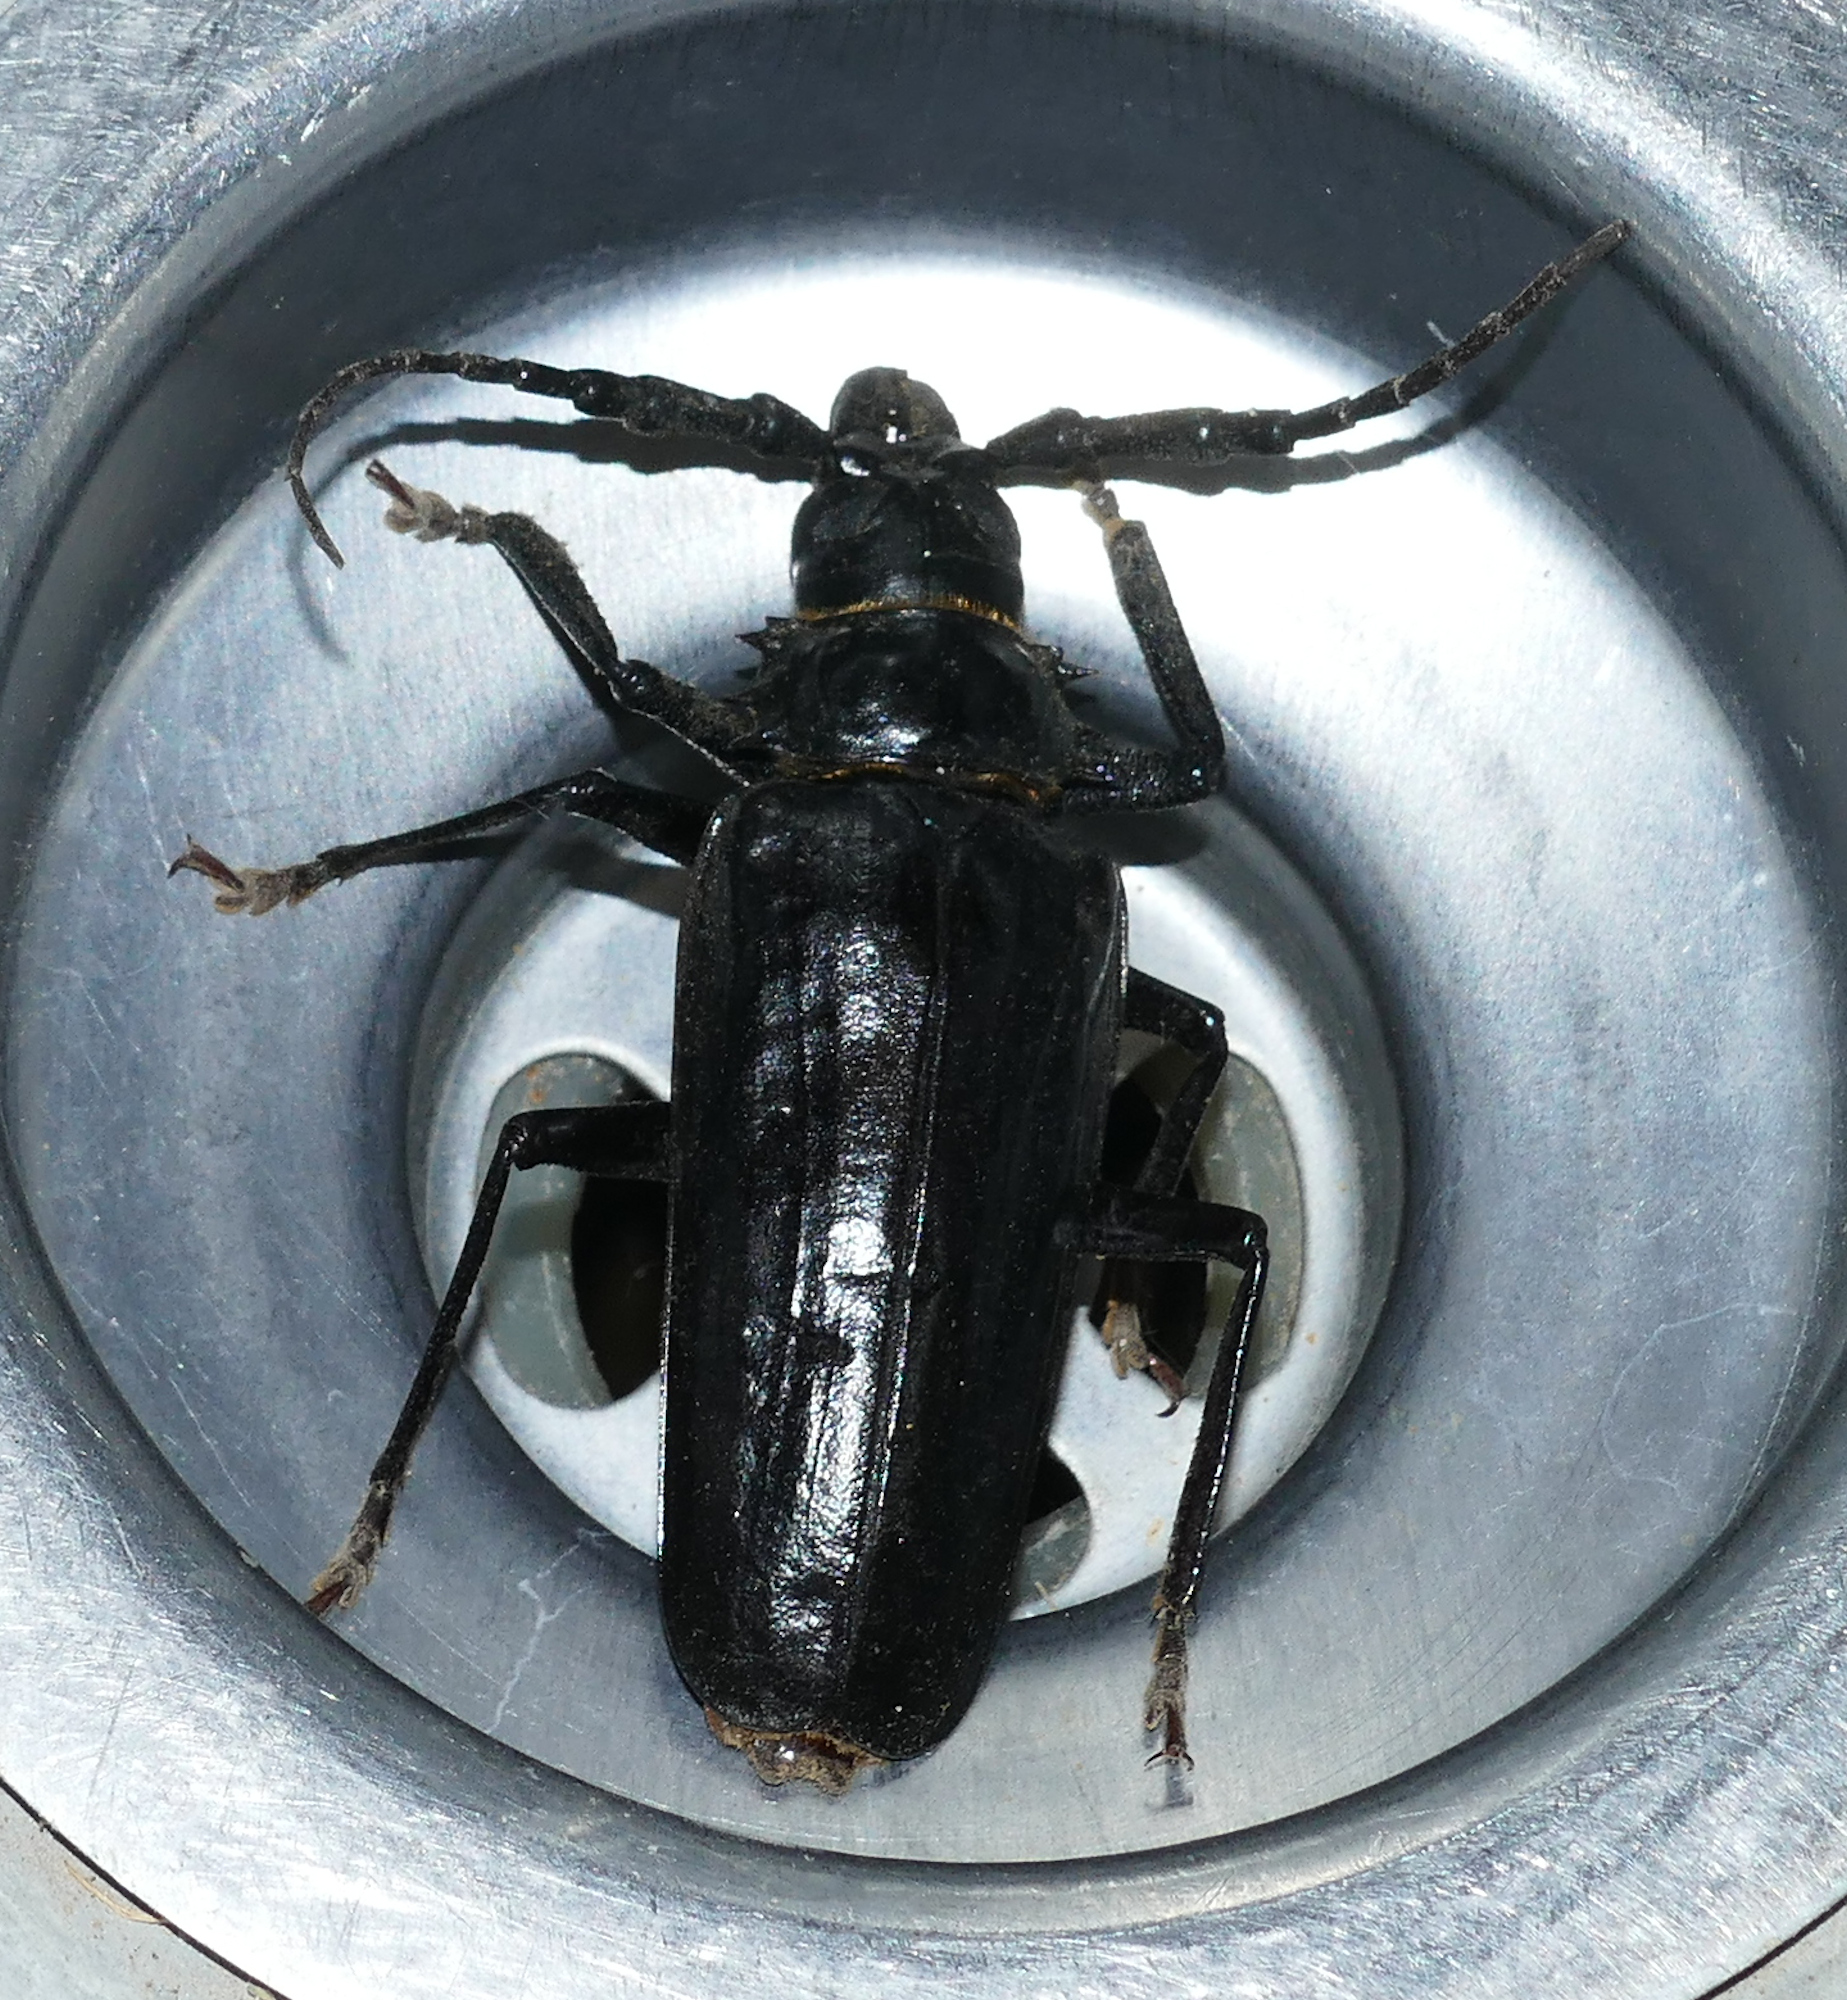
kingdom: Animalia
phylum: Arthropoda
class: Insecta
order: Coleoptera
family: Cerambycidae
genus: Derobrachus
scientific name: Derobrachus hovorei
